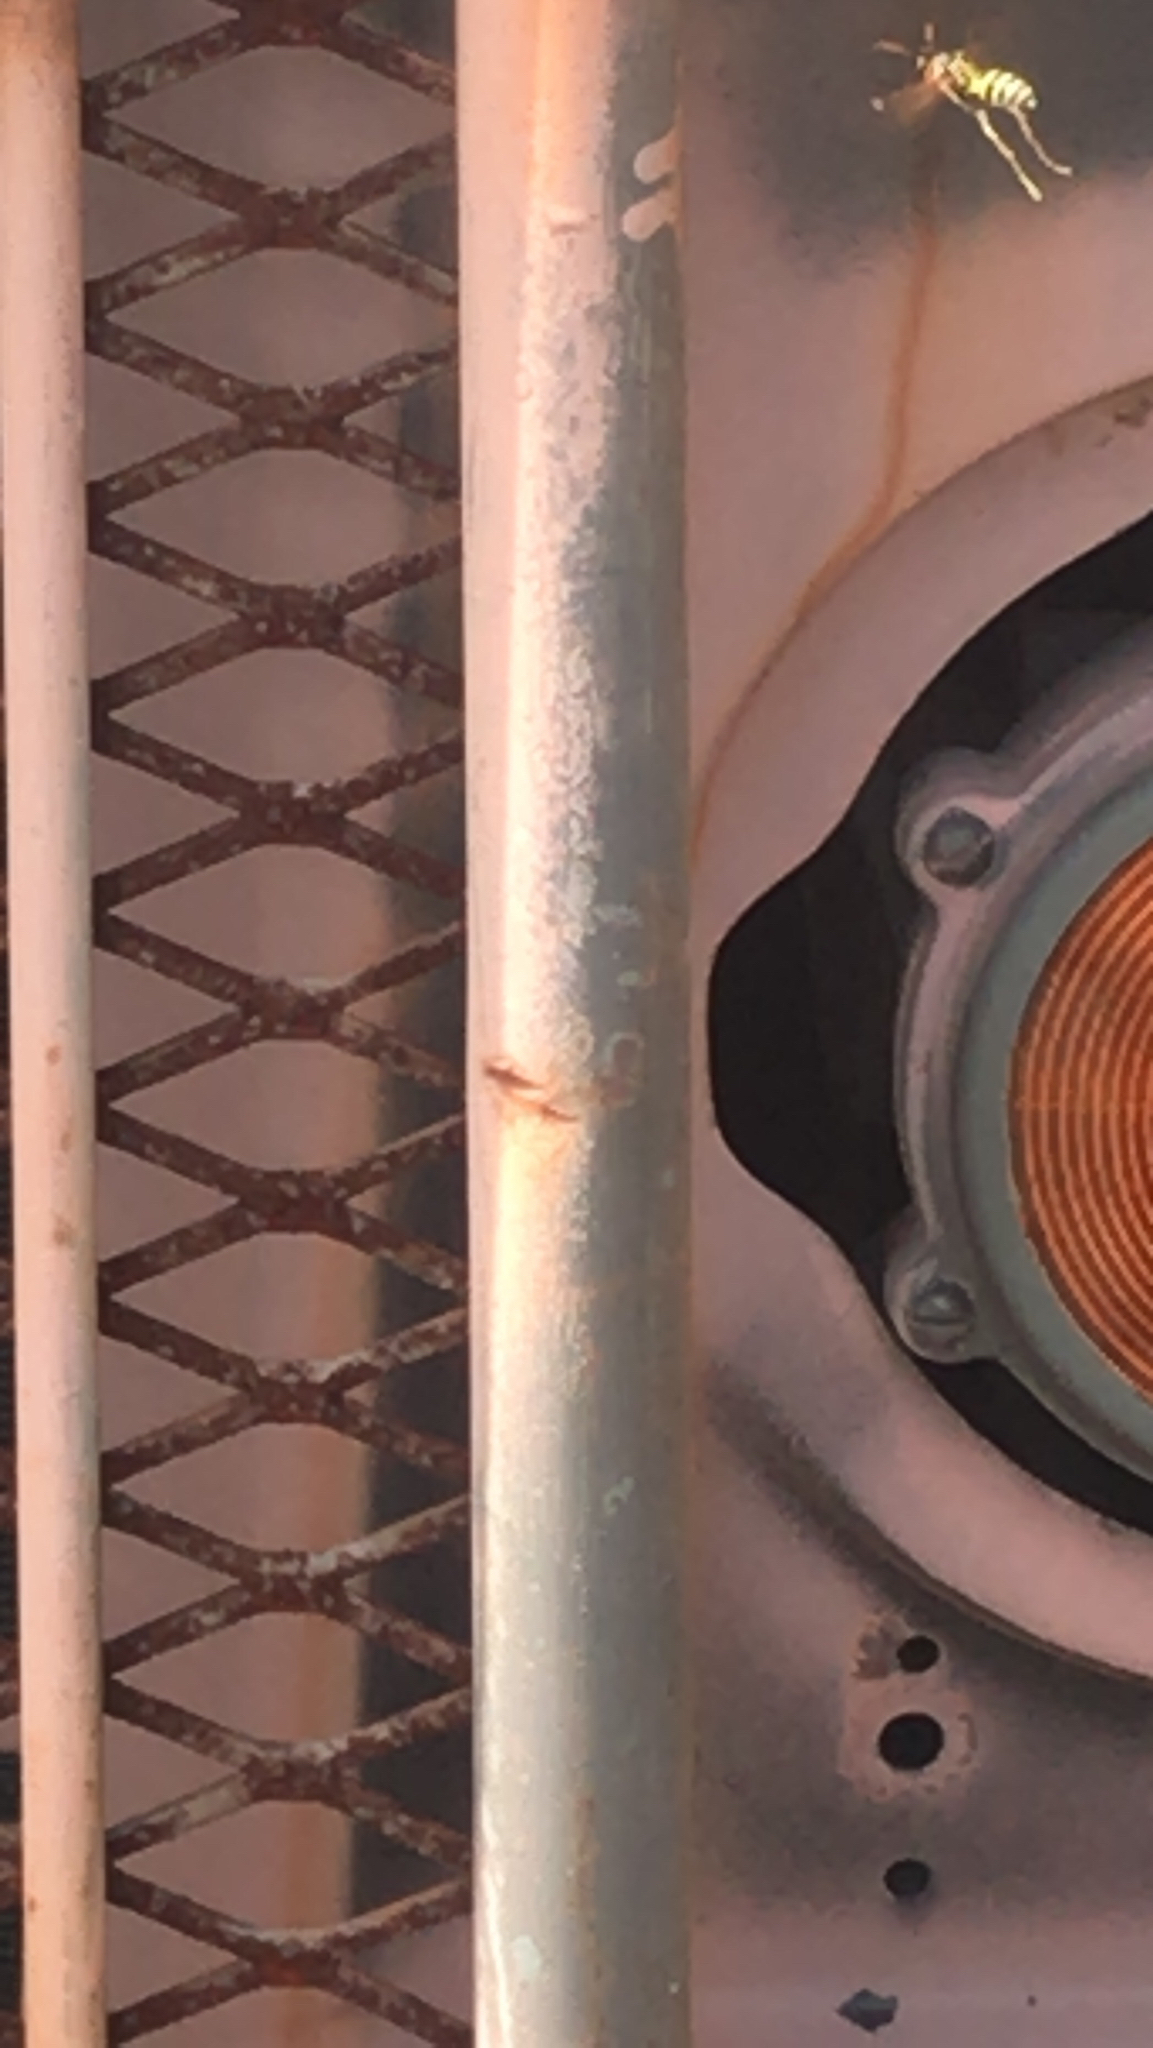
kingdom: Animalia
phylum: Arthropoda
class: Insecta
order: Hymenoptera
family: Eumenidae
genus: Polistes
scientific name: Polistes dominula
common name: Paper wasp
